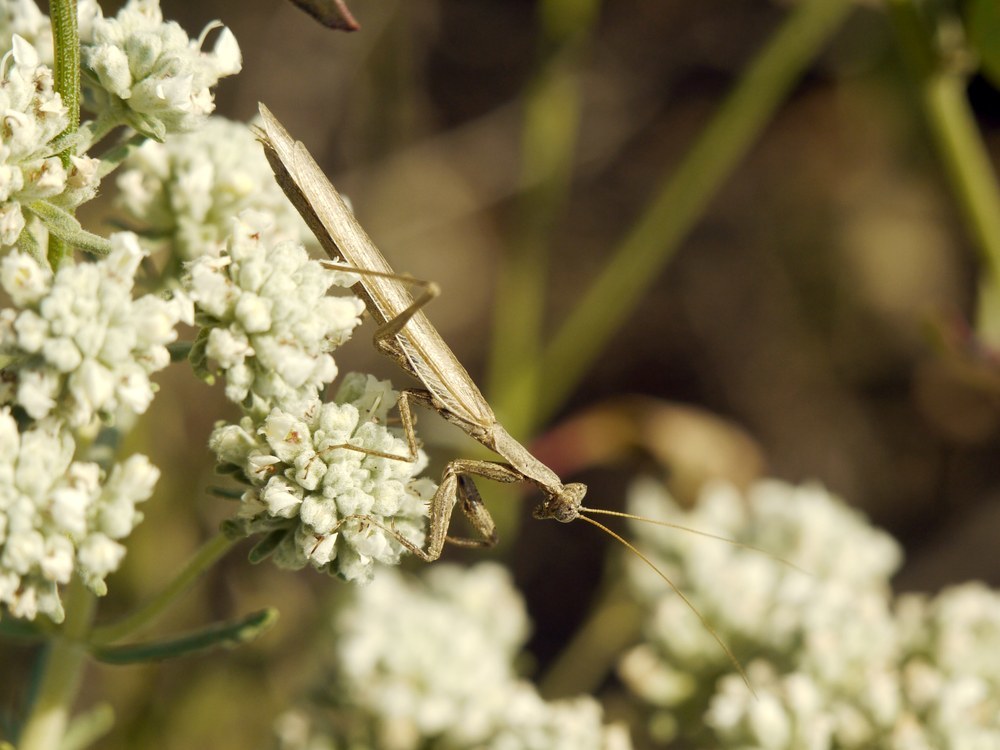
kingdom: Animalia
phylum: Arthropoda
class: Insecta
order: Mantodea
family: Amelidae
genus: Ameles
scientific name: Ameles heldreichi
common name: Heldreich's dwarf mantis
